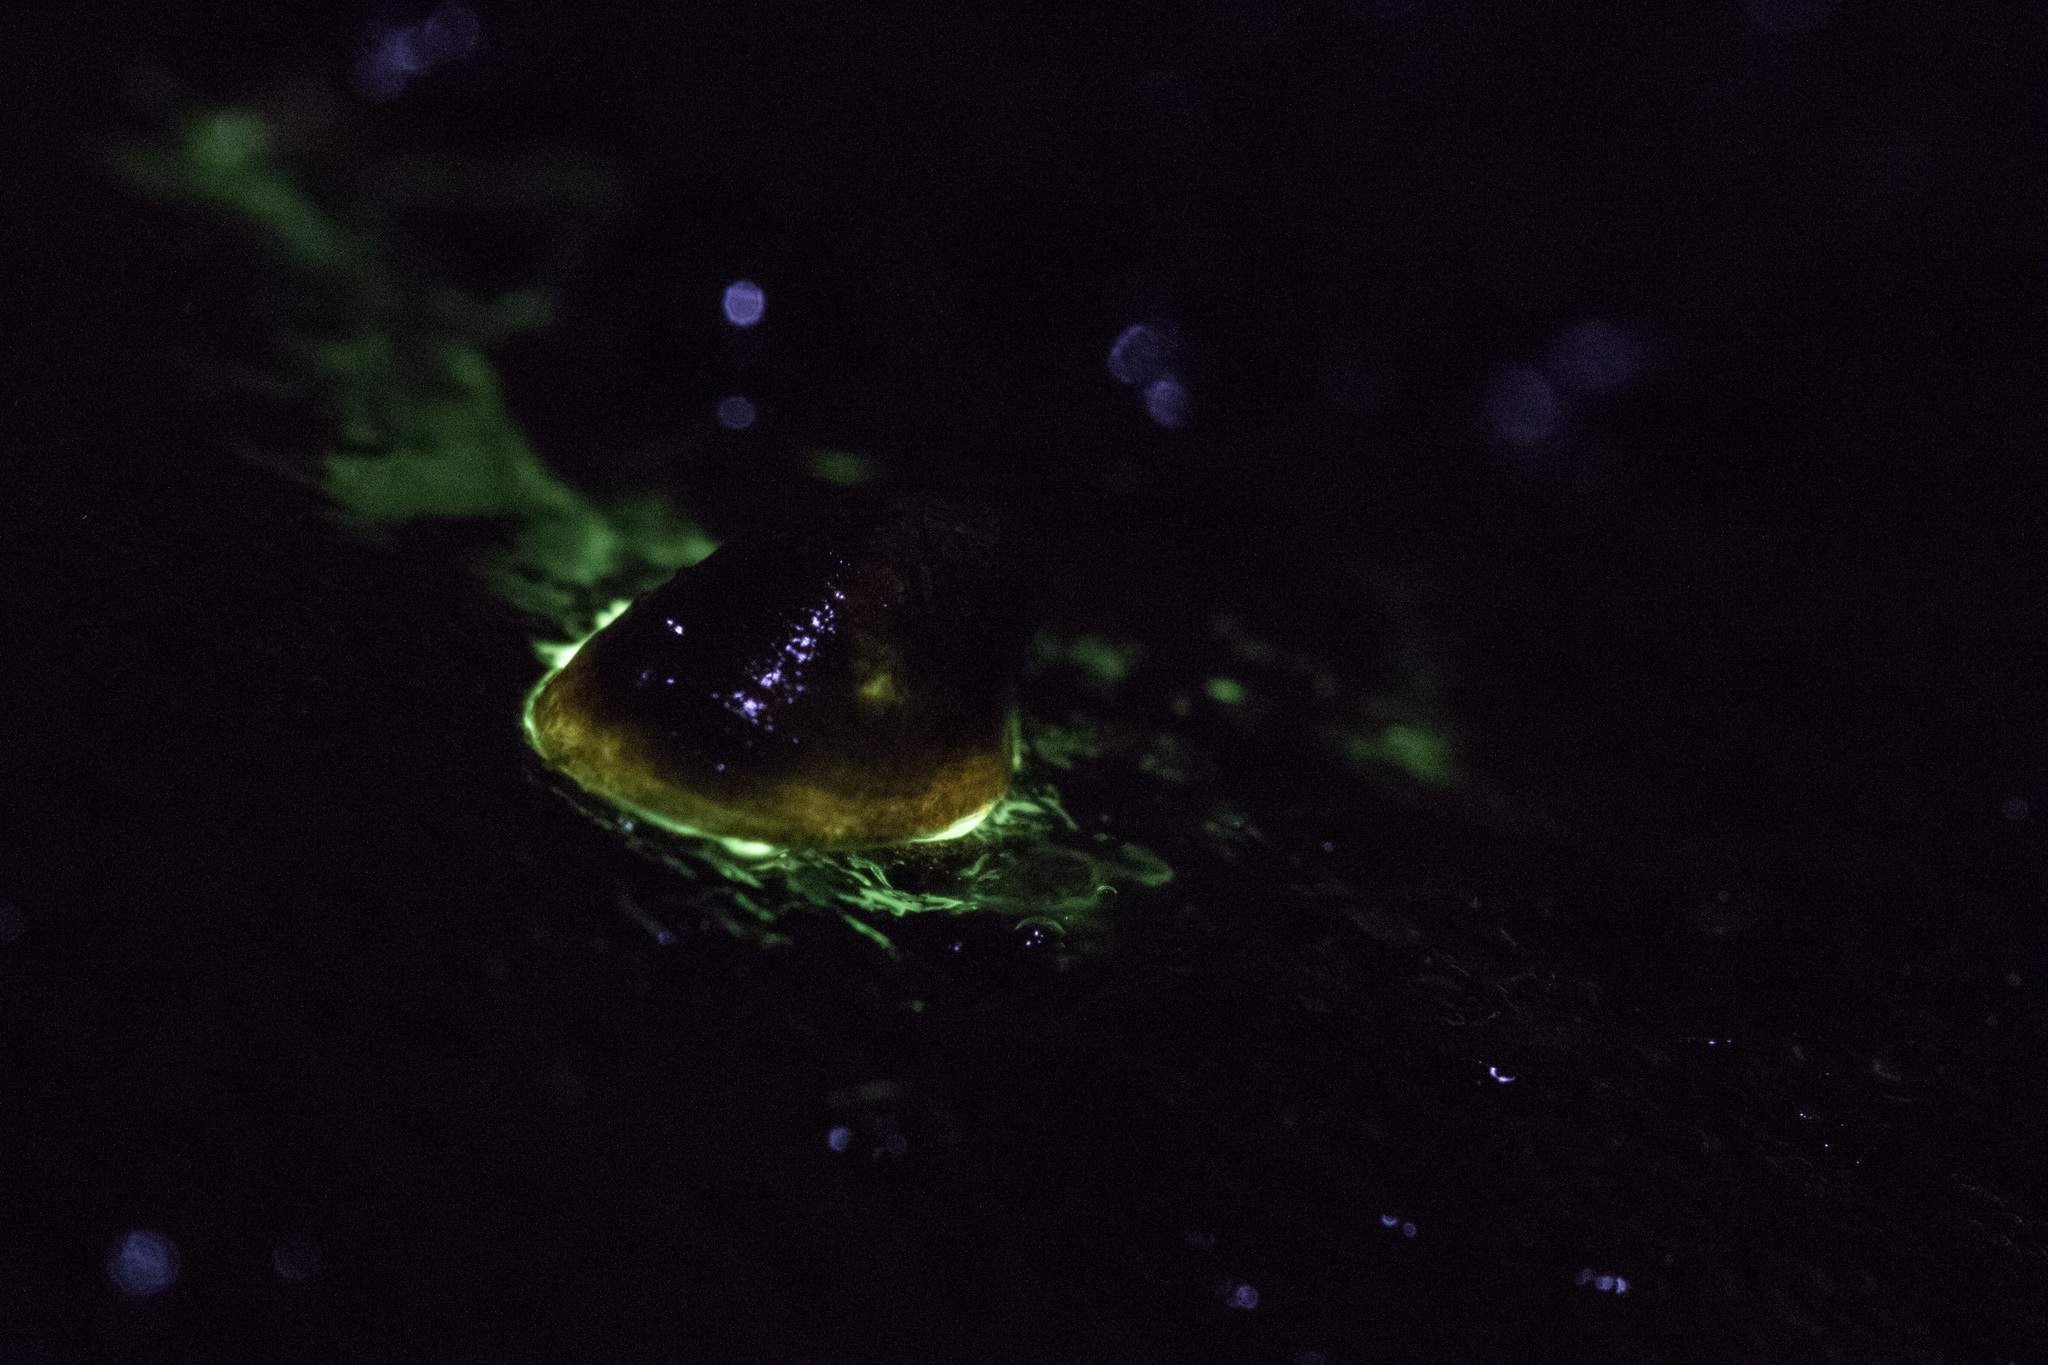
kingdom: Animalia
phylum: Mollusca
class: Gastropoda
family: Latiidae
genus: Latia
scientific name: Latia neritoides
